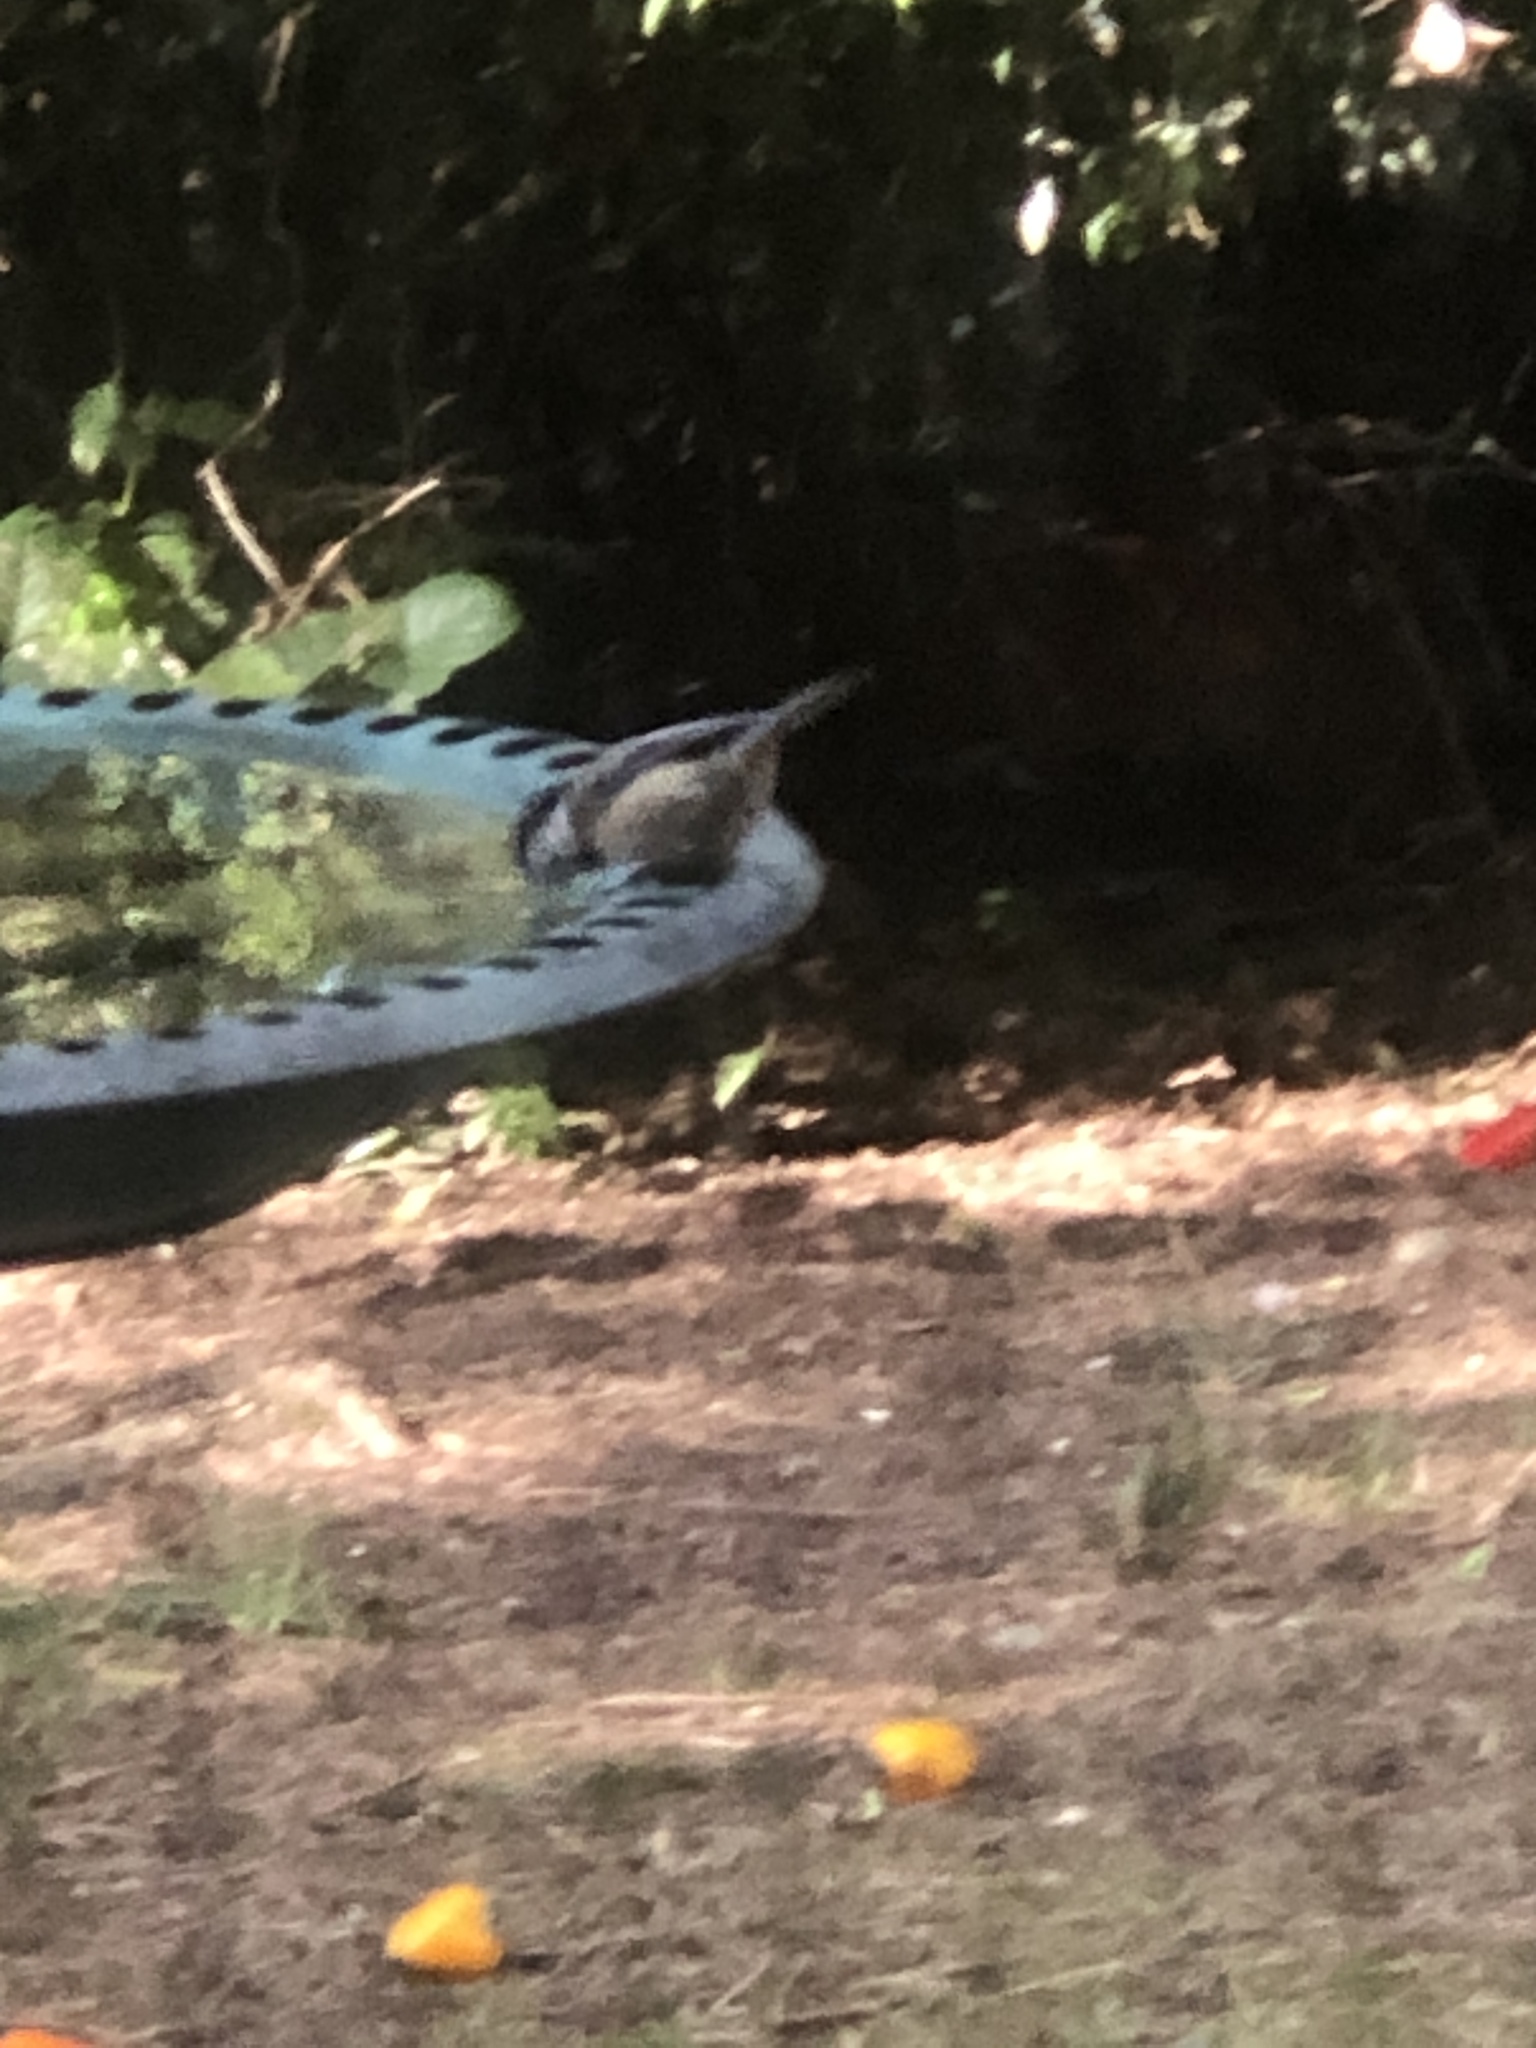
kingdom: Animalia
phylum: Chordata
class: Aves
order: Passeriformes
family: Paridae
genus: Poecile
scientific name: Poecile atricapillus
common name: Black-capped chickadee
